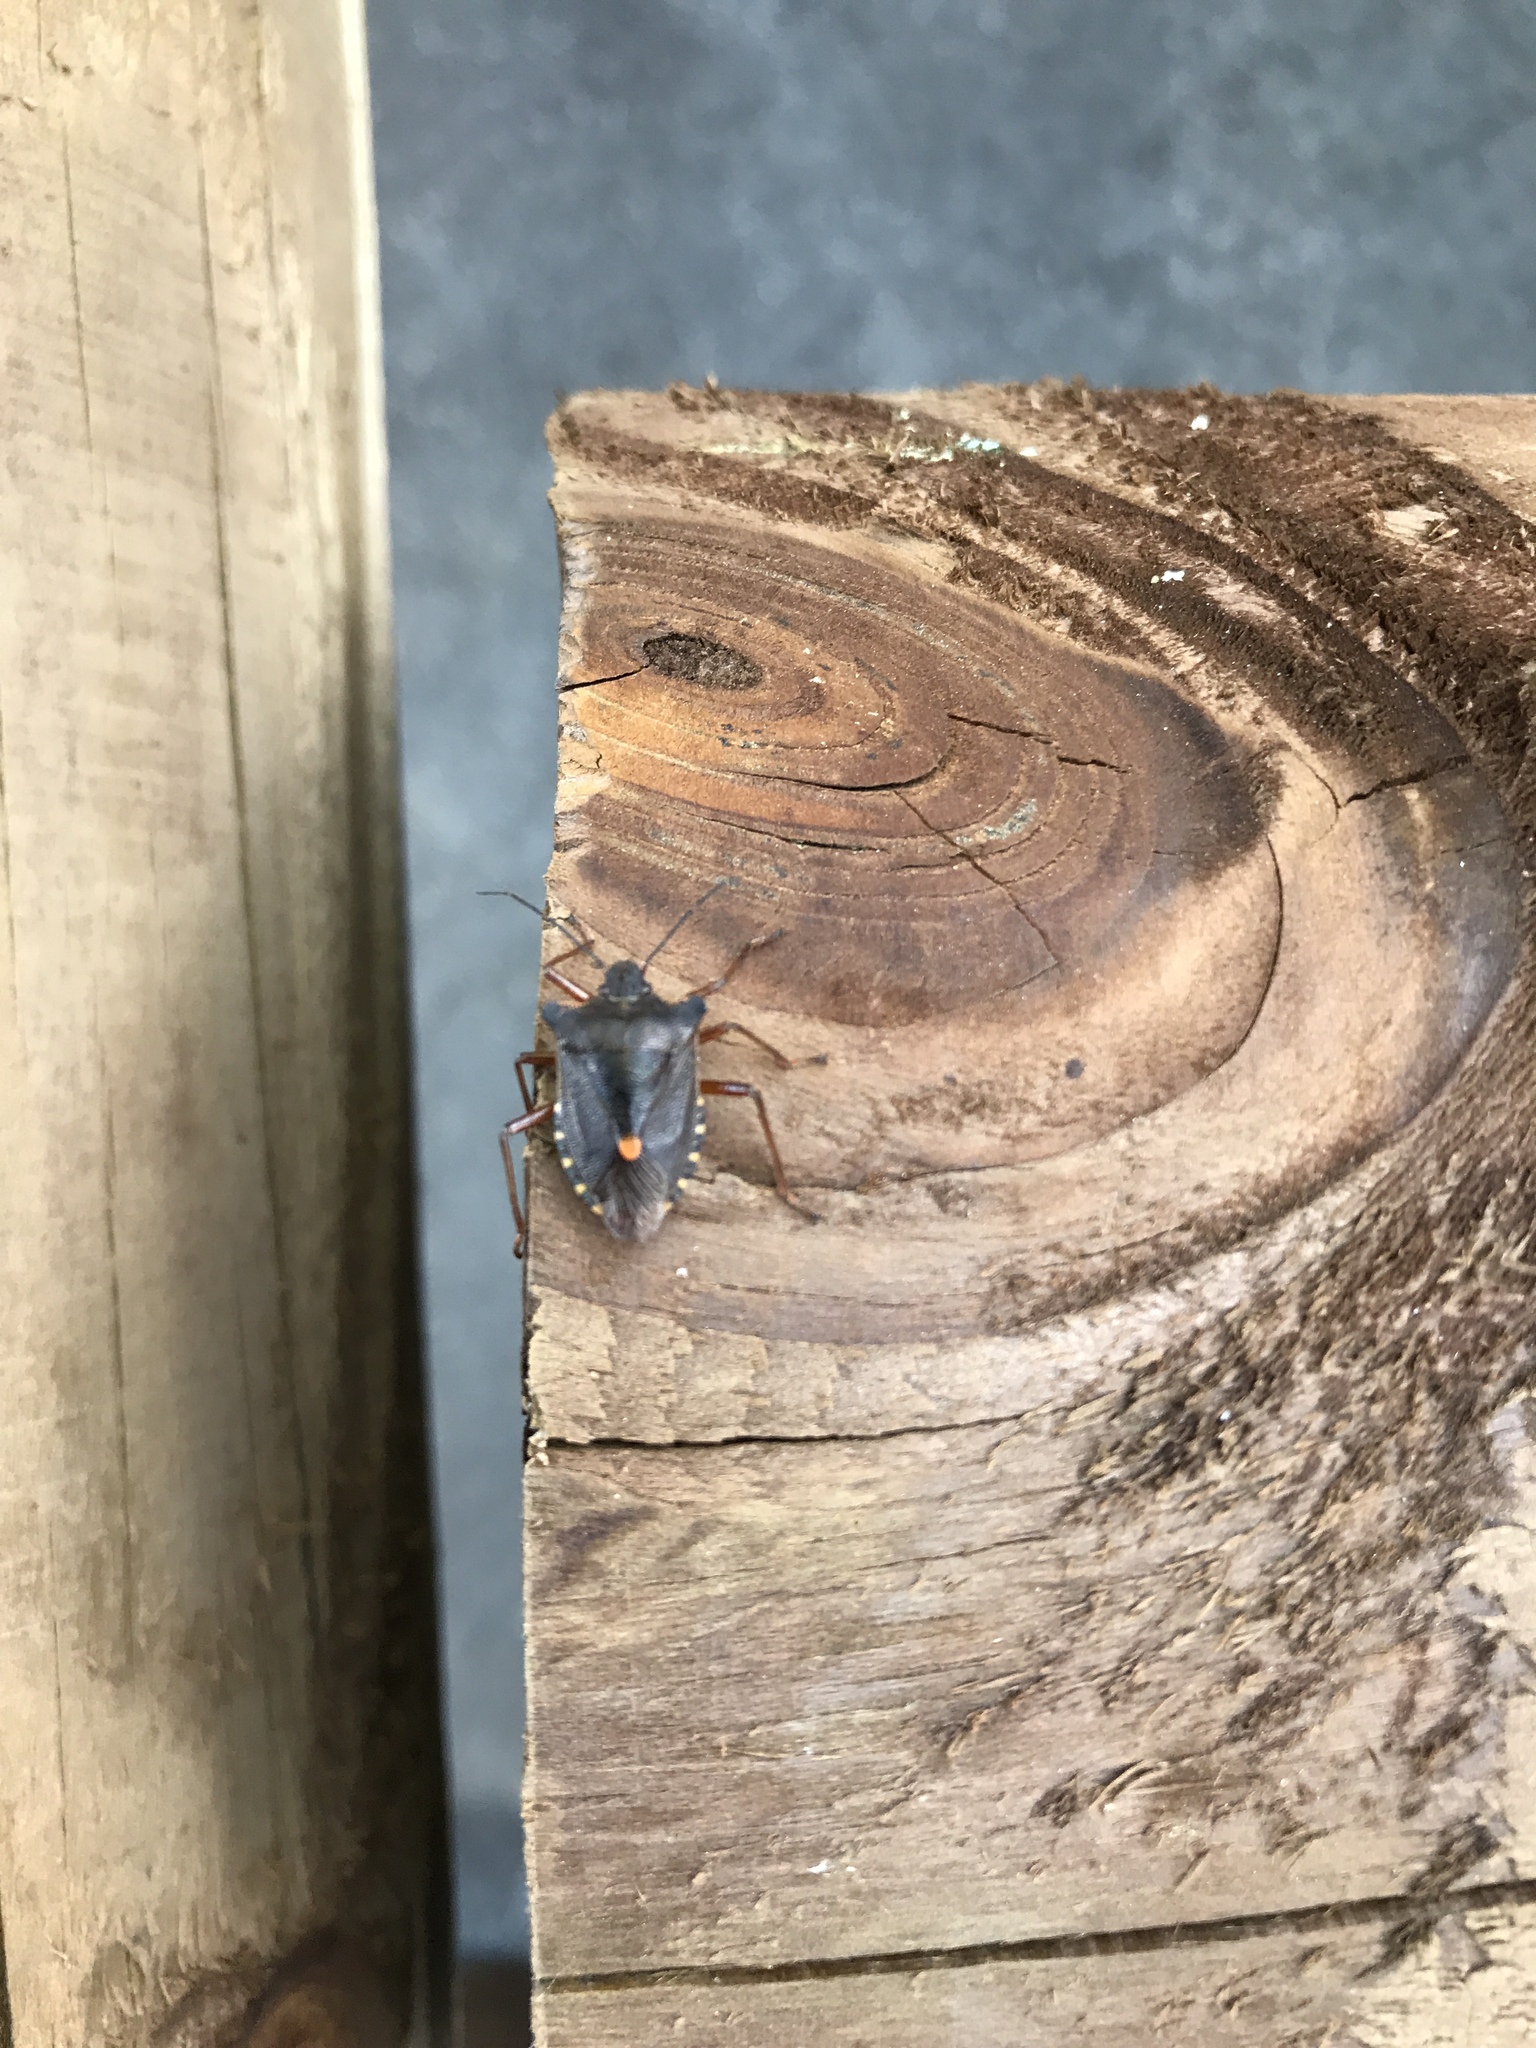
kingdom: Animalia
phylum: Arthropoda
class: Insecta
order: Hemiptera
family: Pentatomidae
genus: Pentatoma
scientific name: Pentatoma rufipes
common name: Forest bug
